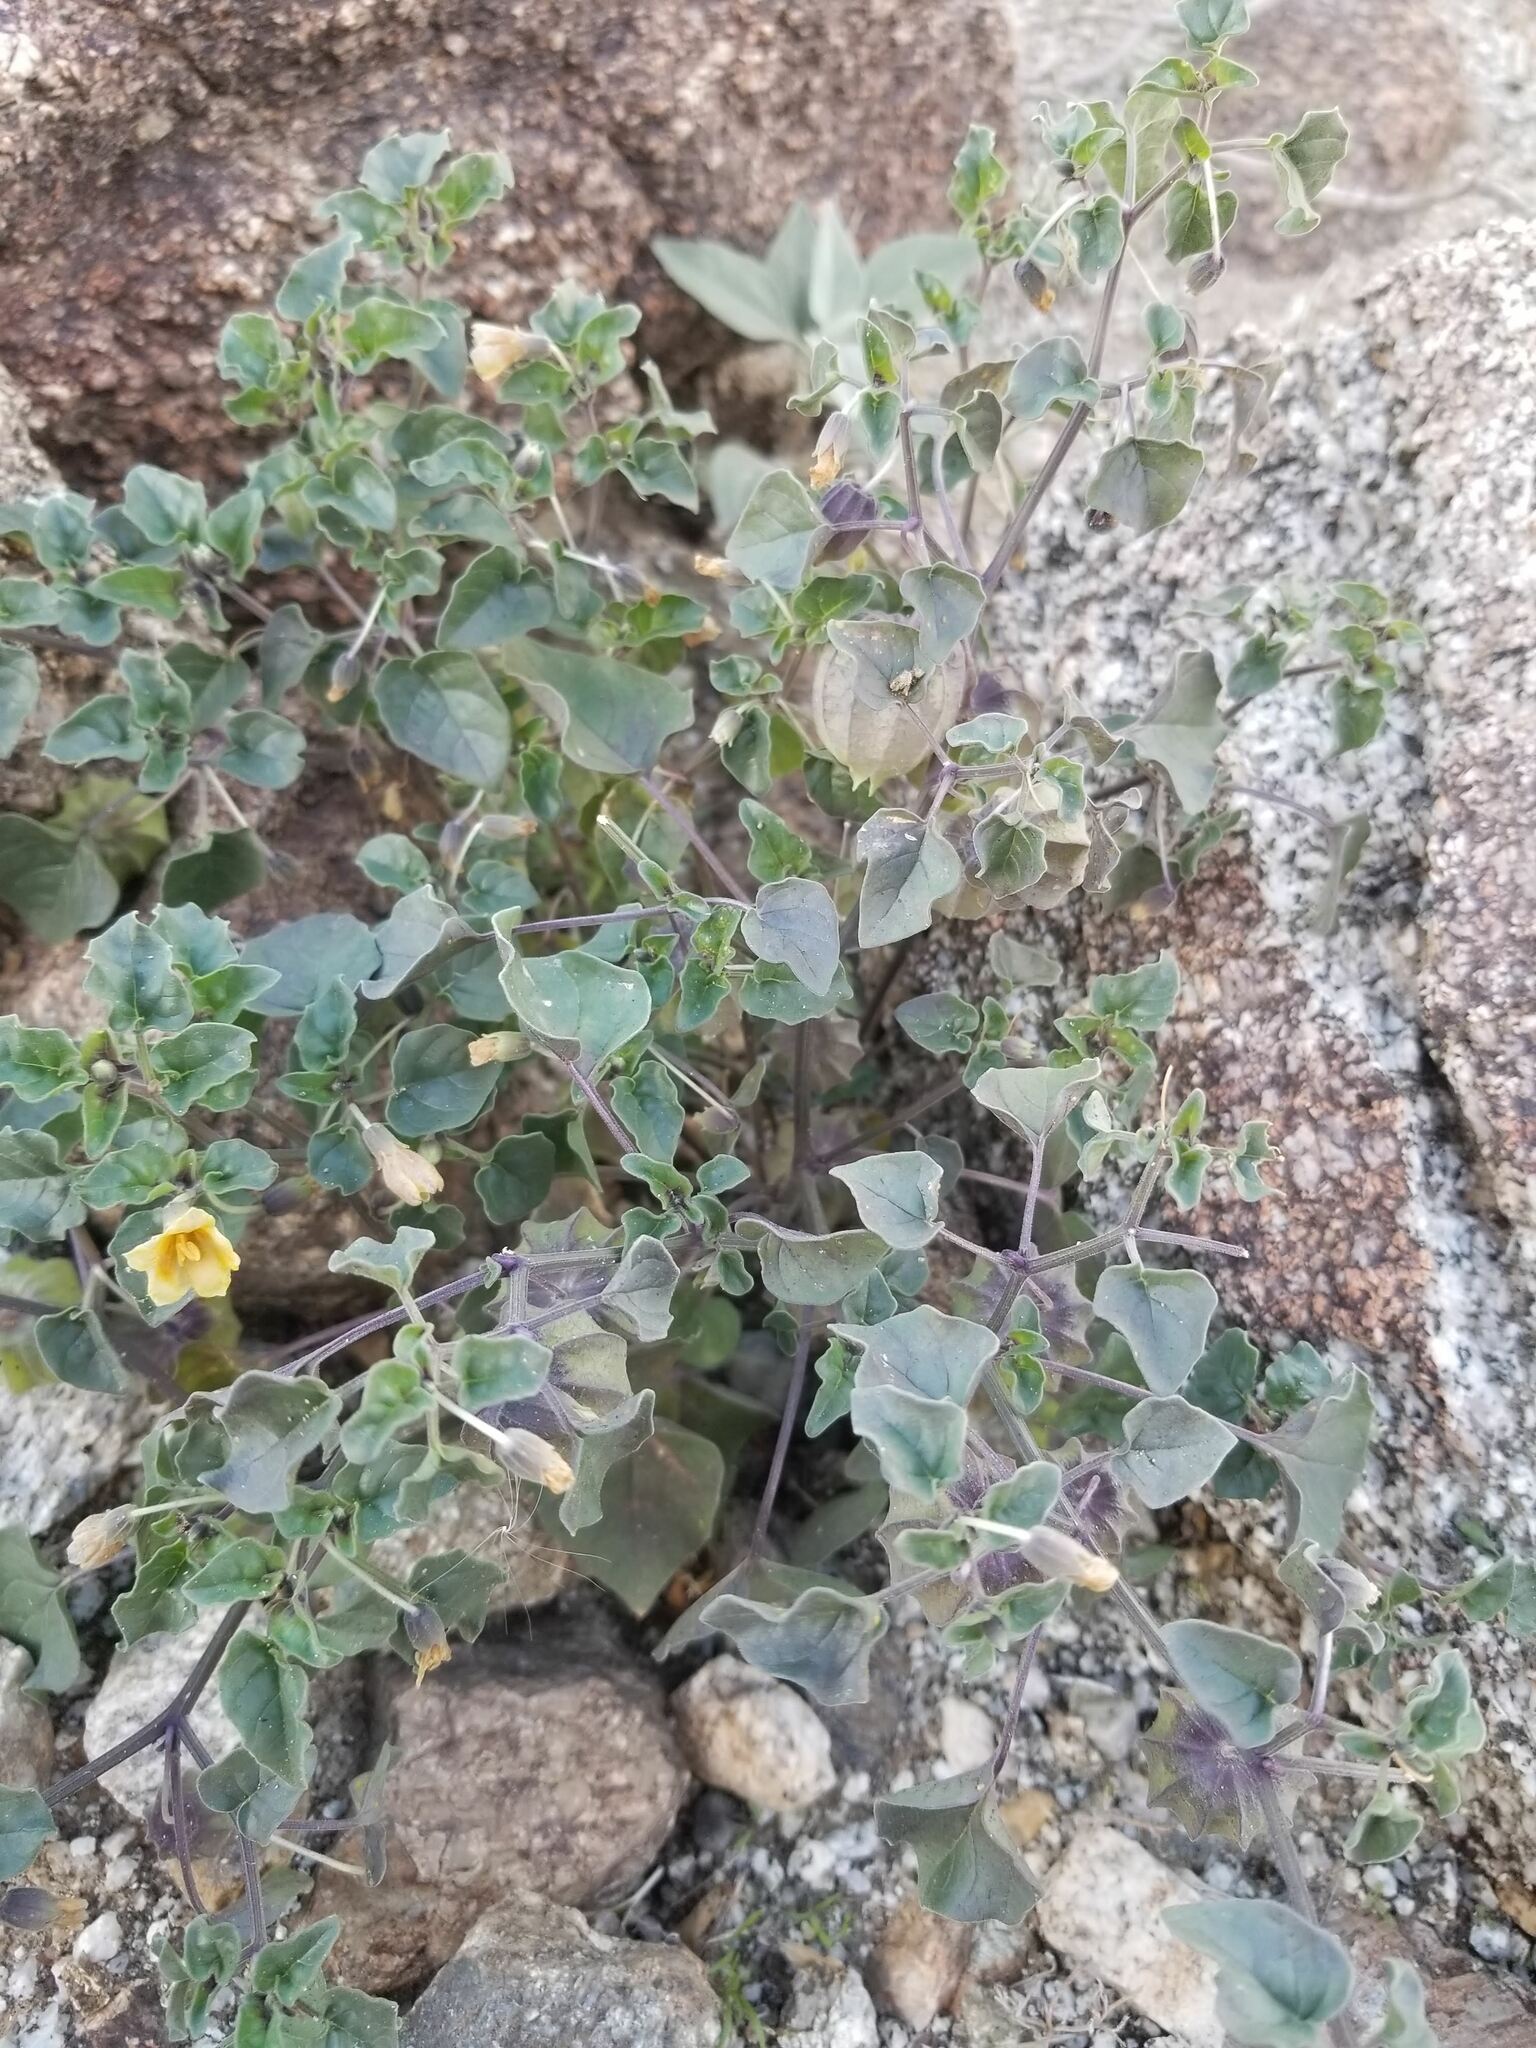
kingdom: Plantae
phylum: Tracheophyta
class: Magnoliopsida
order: Solanales
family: Solanaceae
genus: Physalis
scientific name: Physalis crassifolia
